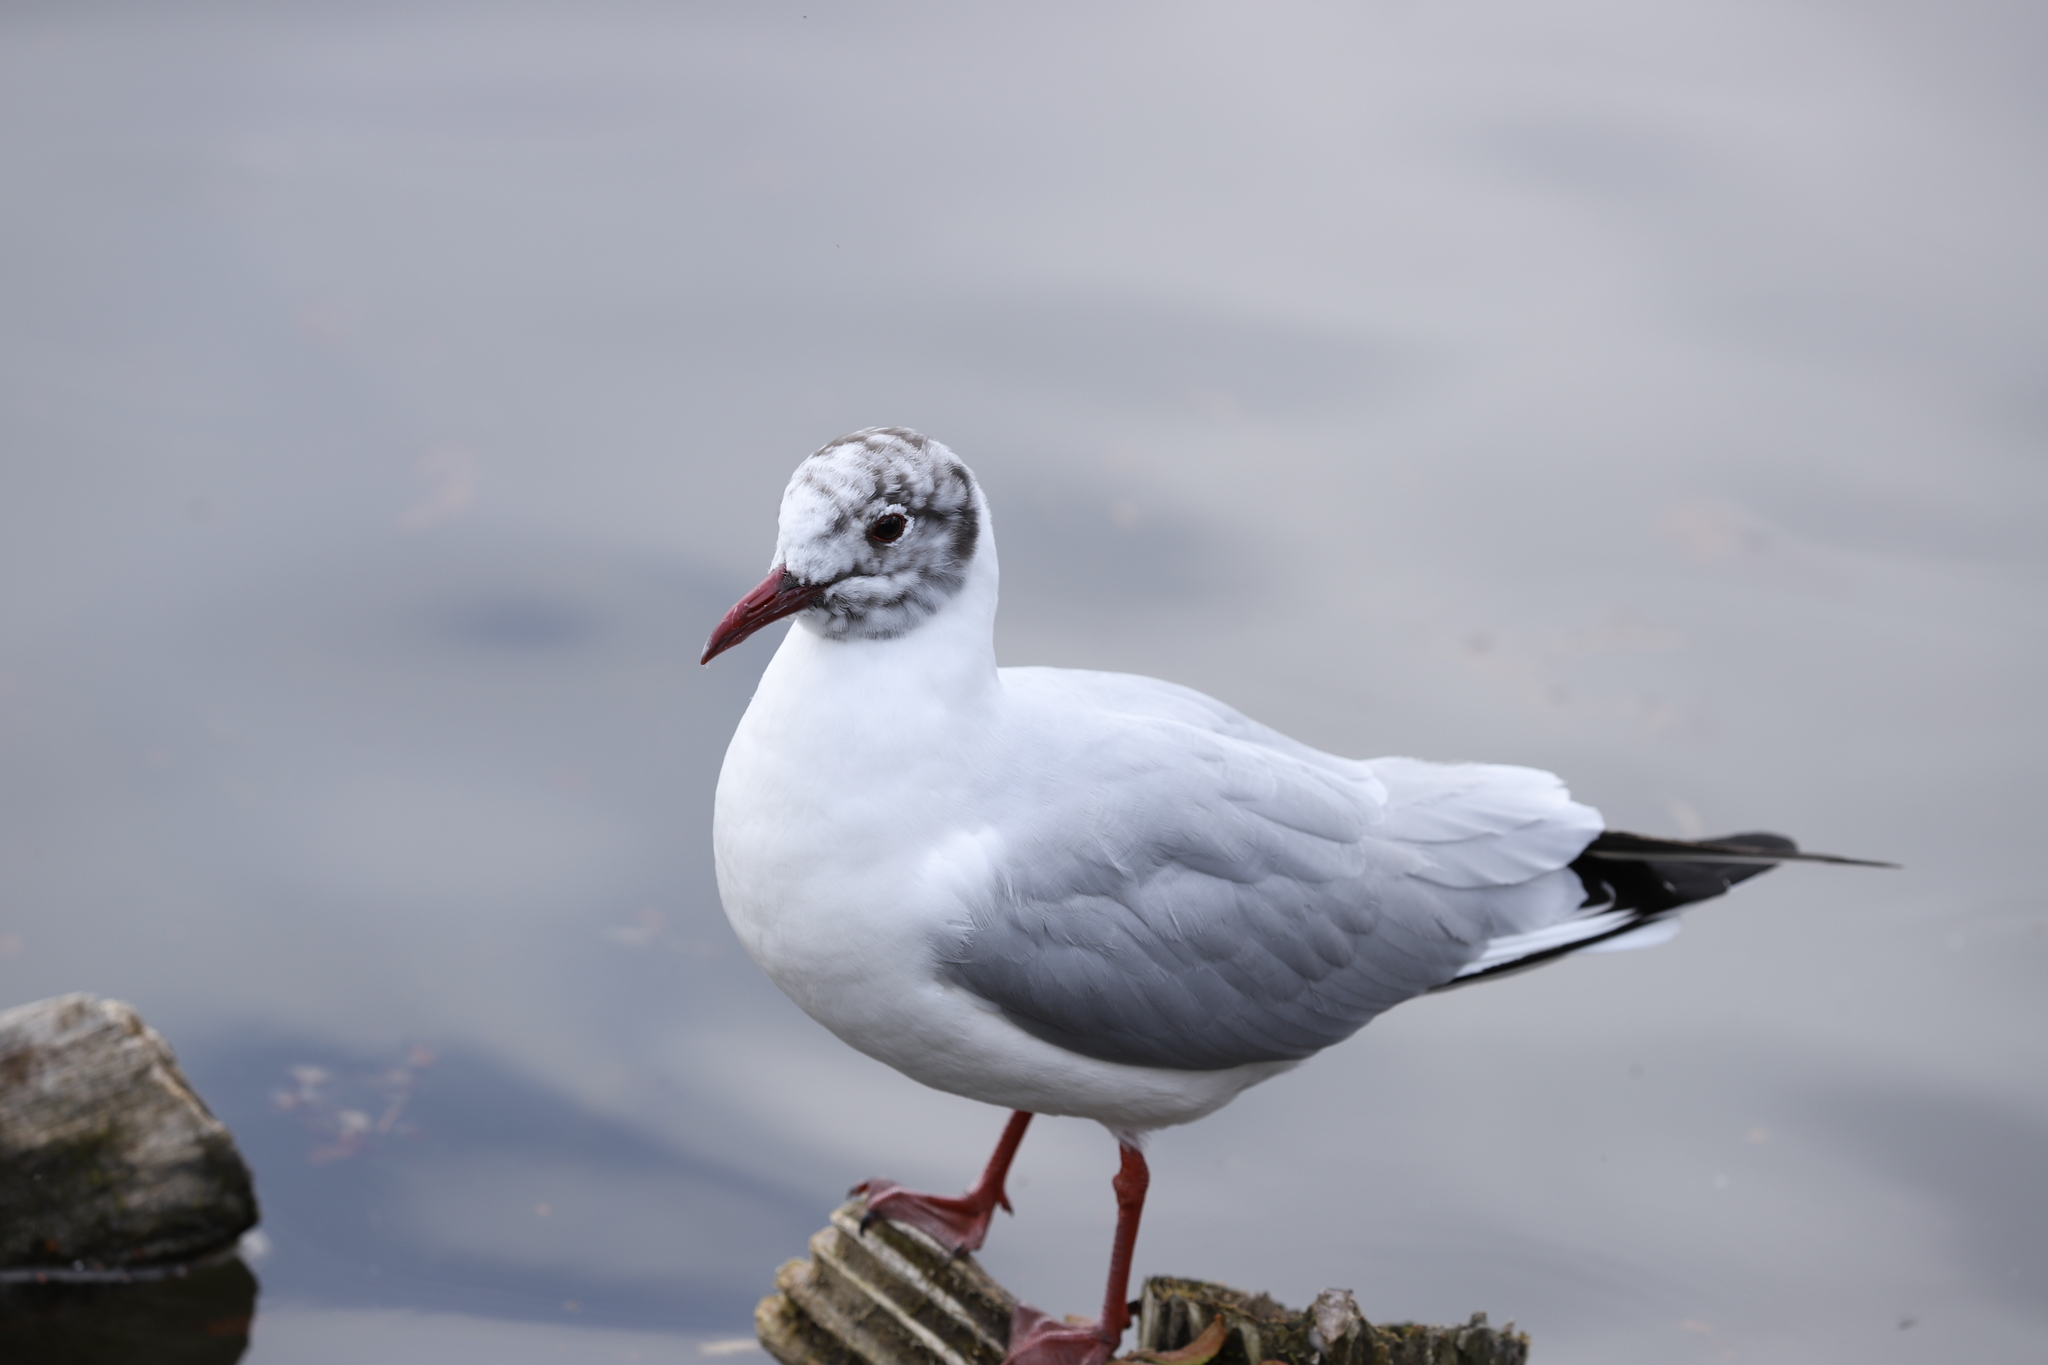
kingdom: Animalia
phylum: Chordata
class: Aves
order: Charadriiformes
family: Laridae
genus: Chroicocephalus
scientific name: Chroicocephalus ridibundus
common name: Black-headed gull
